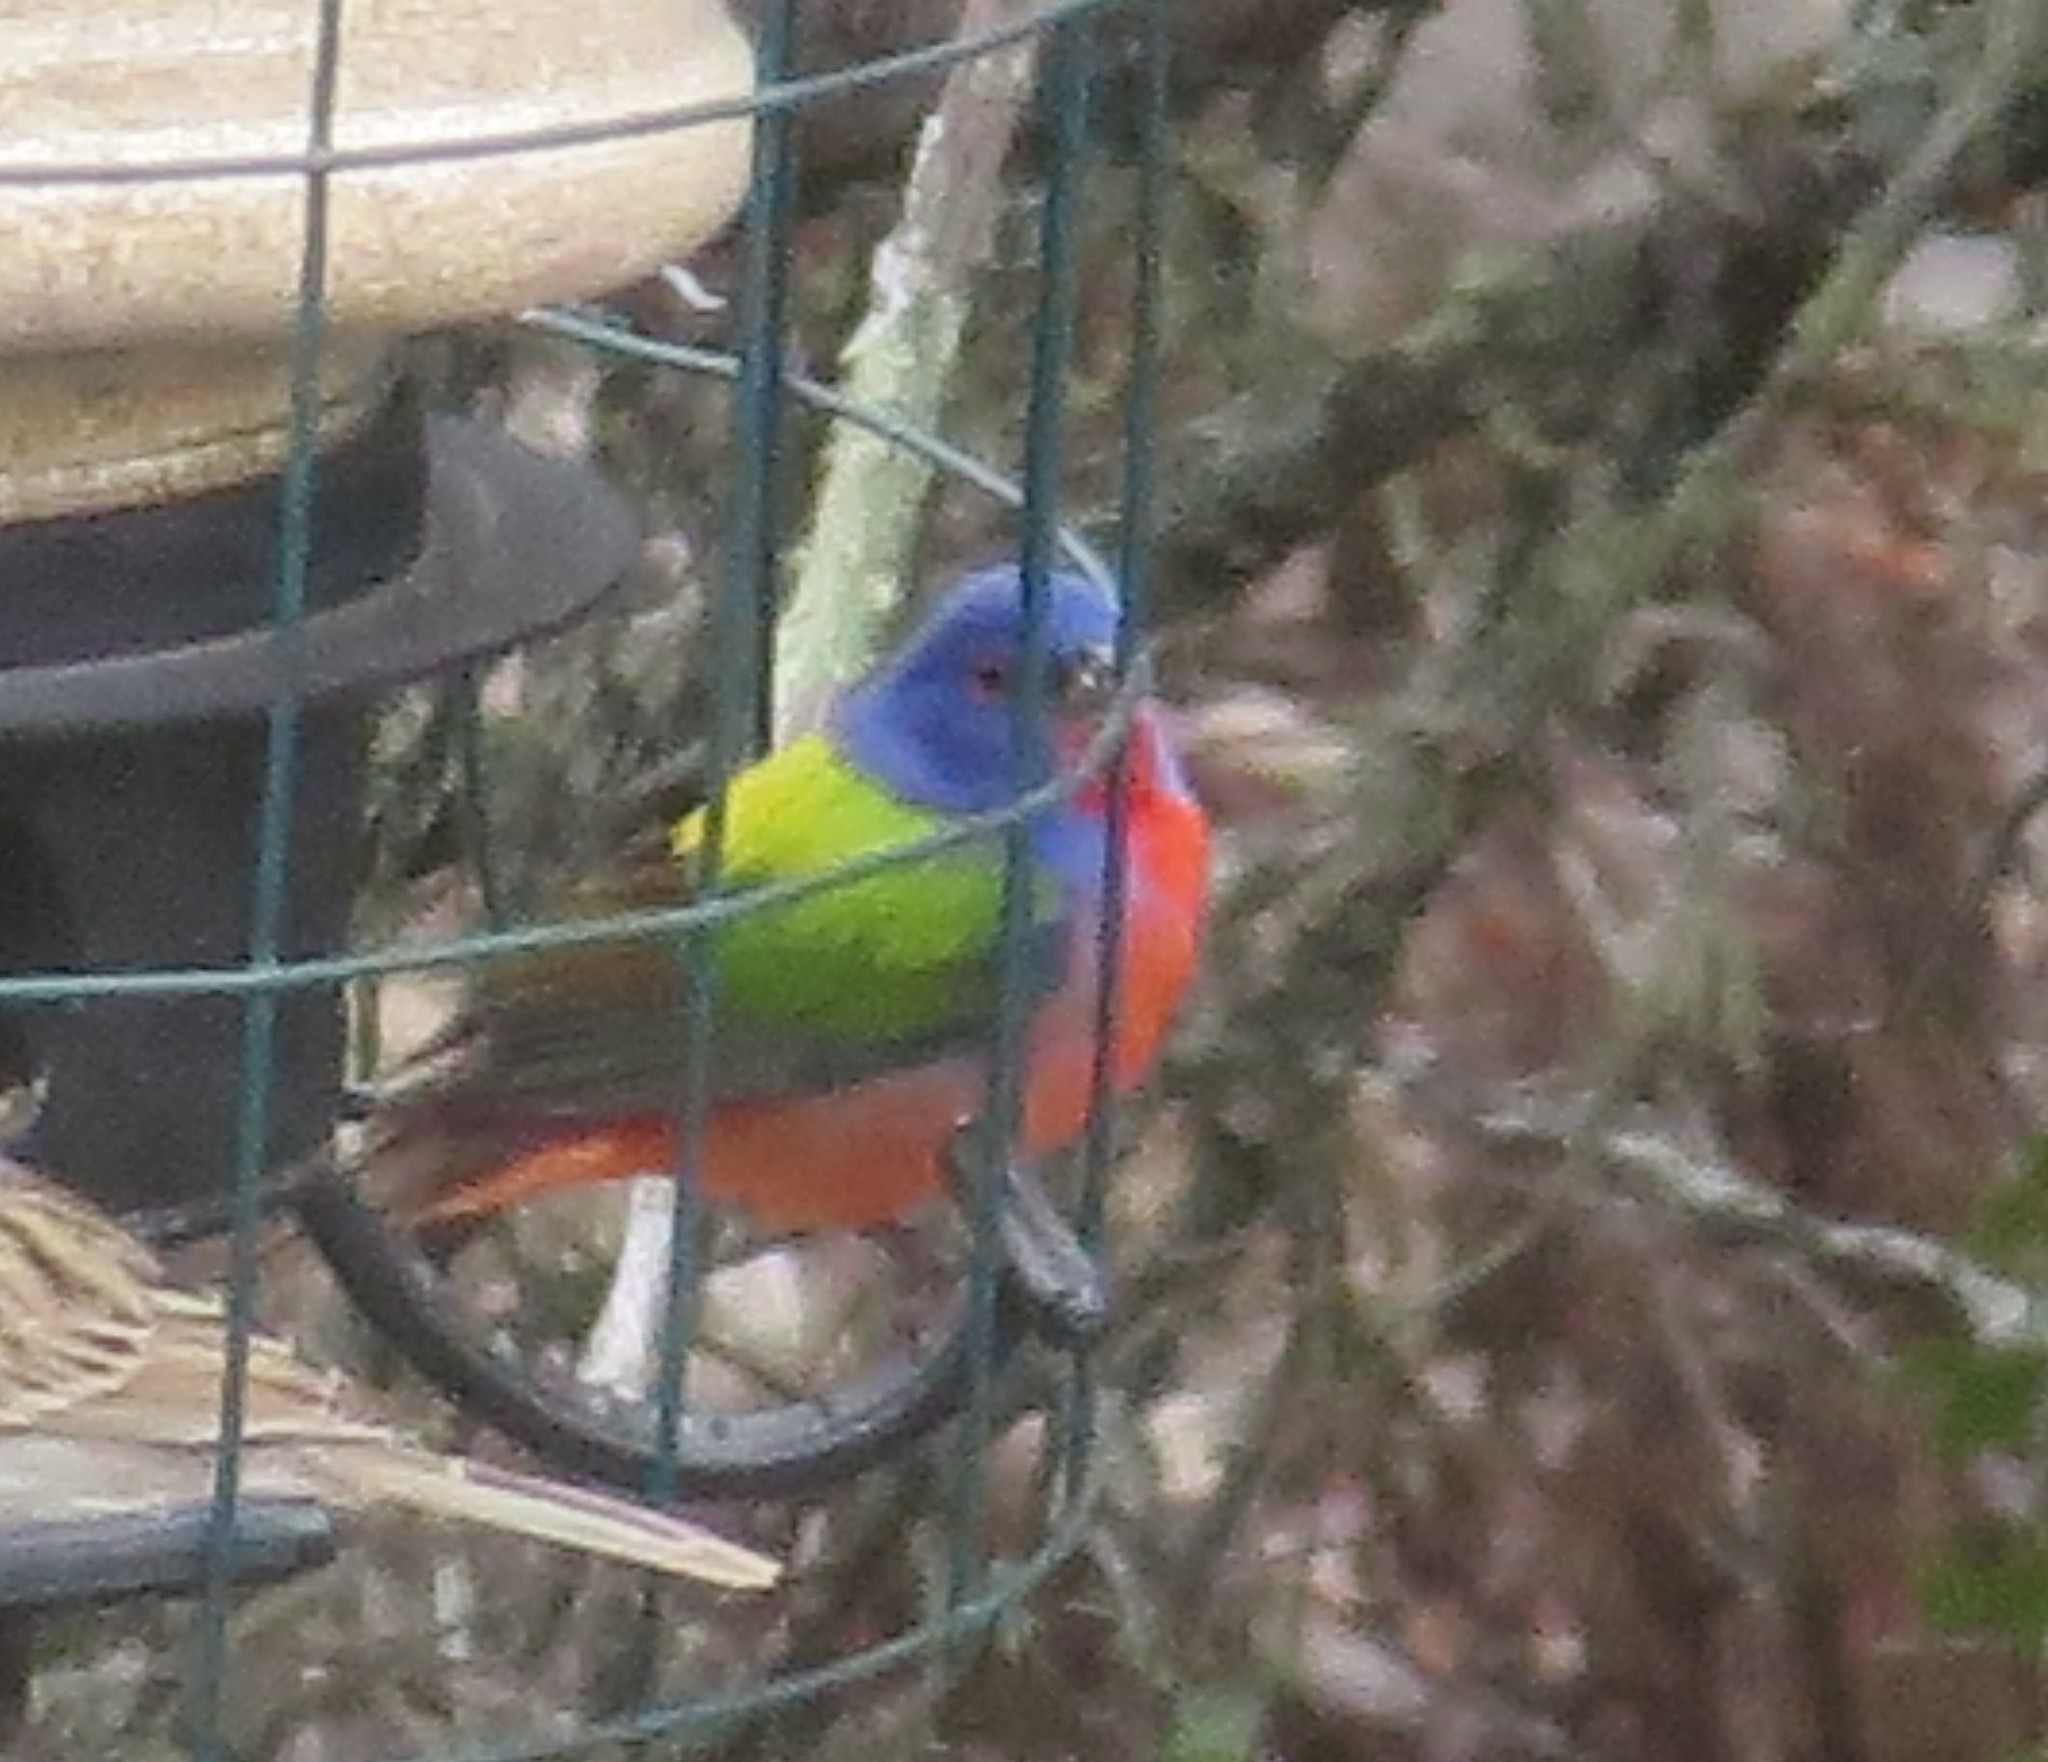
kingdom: Animalia
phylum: Chordata
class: Aves
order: Passeriformes
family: Cardinalidae
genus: Passerina
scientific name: Passerina ciris
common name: Painted bunting
